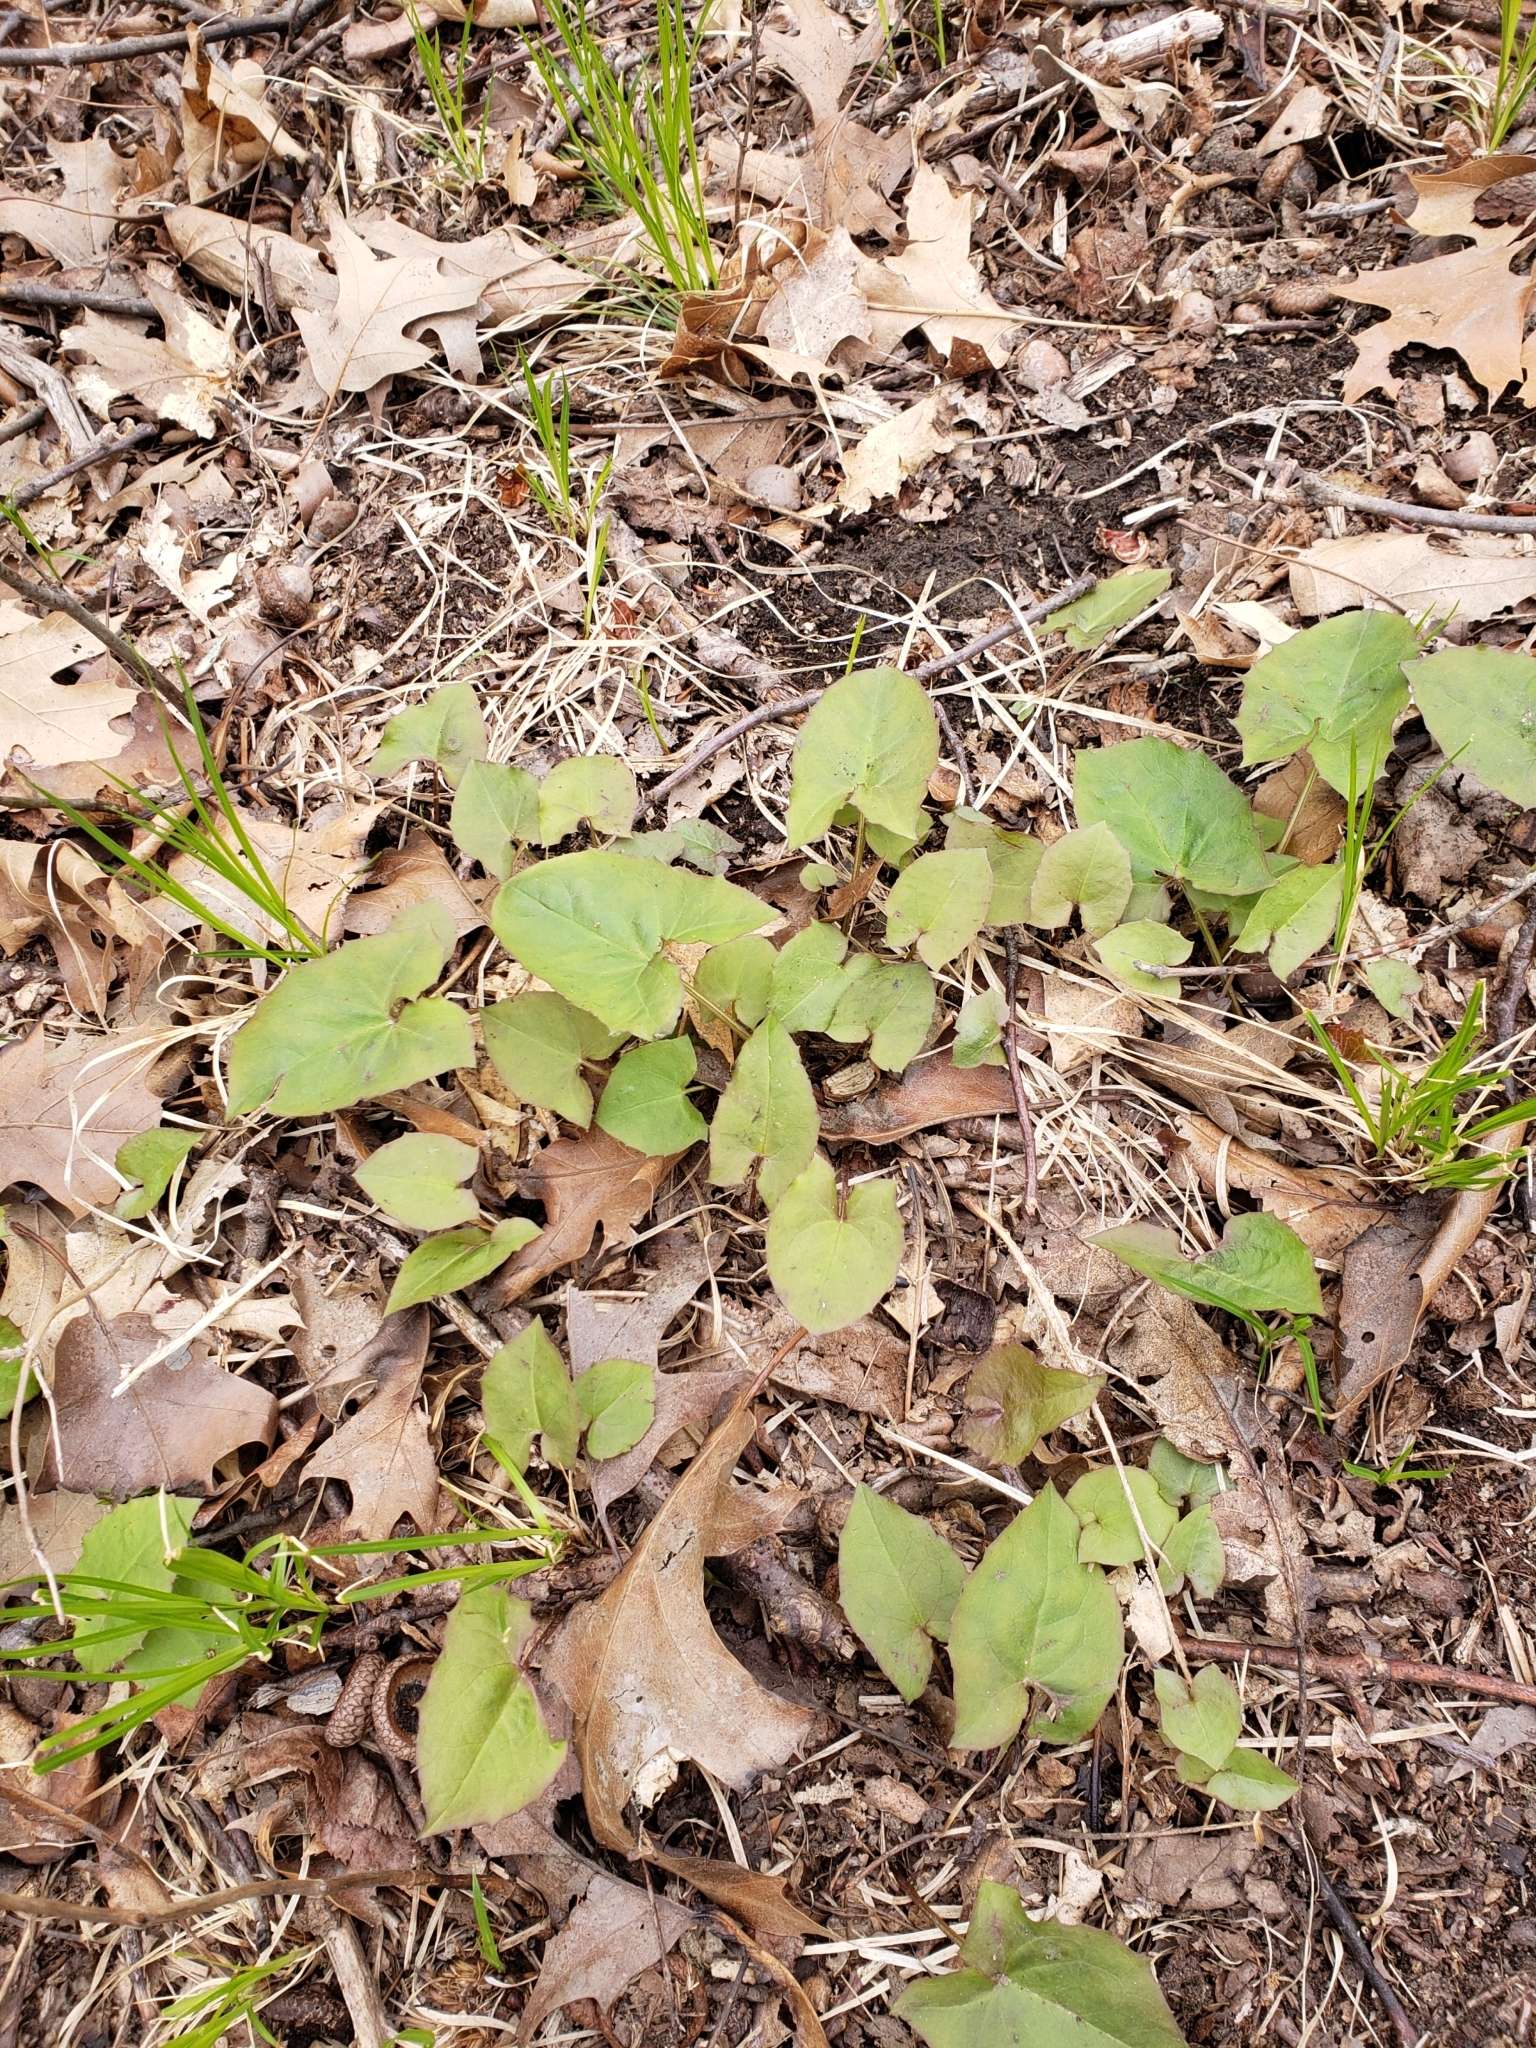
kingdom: Plantae
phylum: Tracheophyta
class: Magnoliopsida
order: Ranunculales
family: Ranunculaceae
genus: Ficaria
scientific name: Ficaria verna
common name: Lesser celandine
